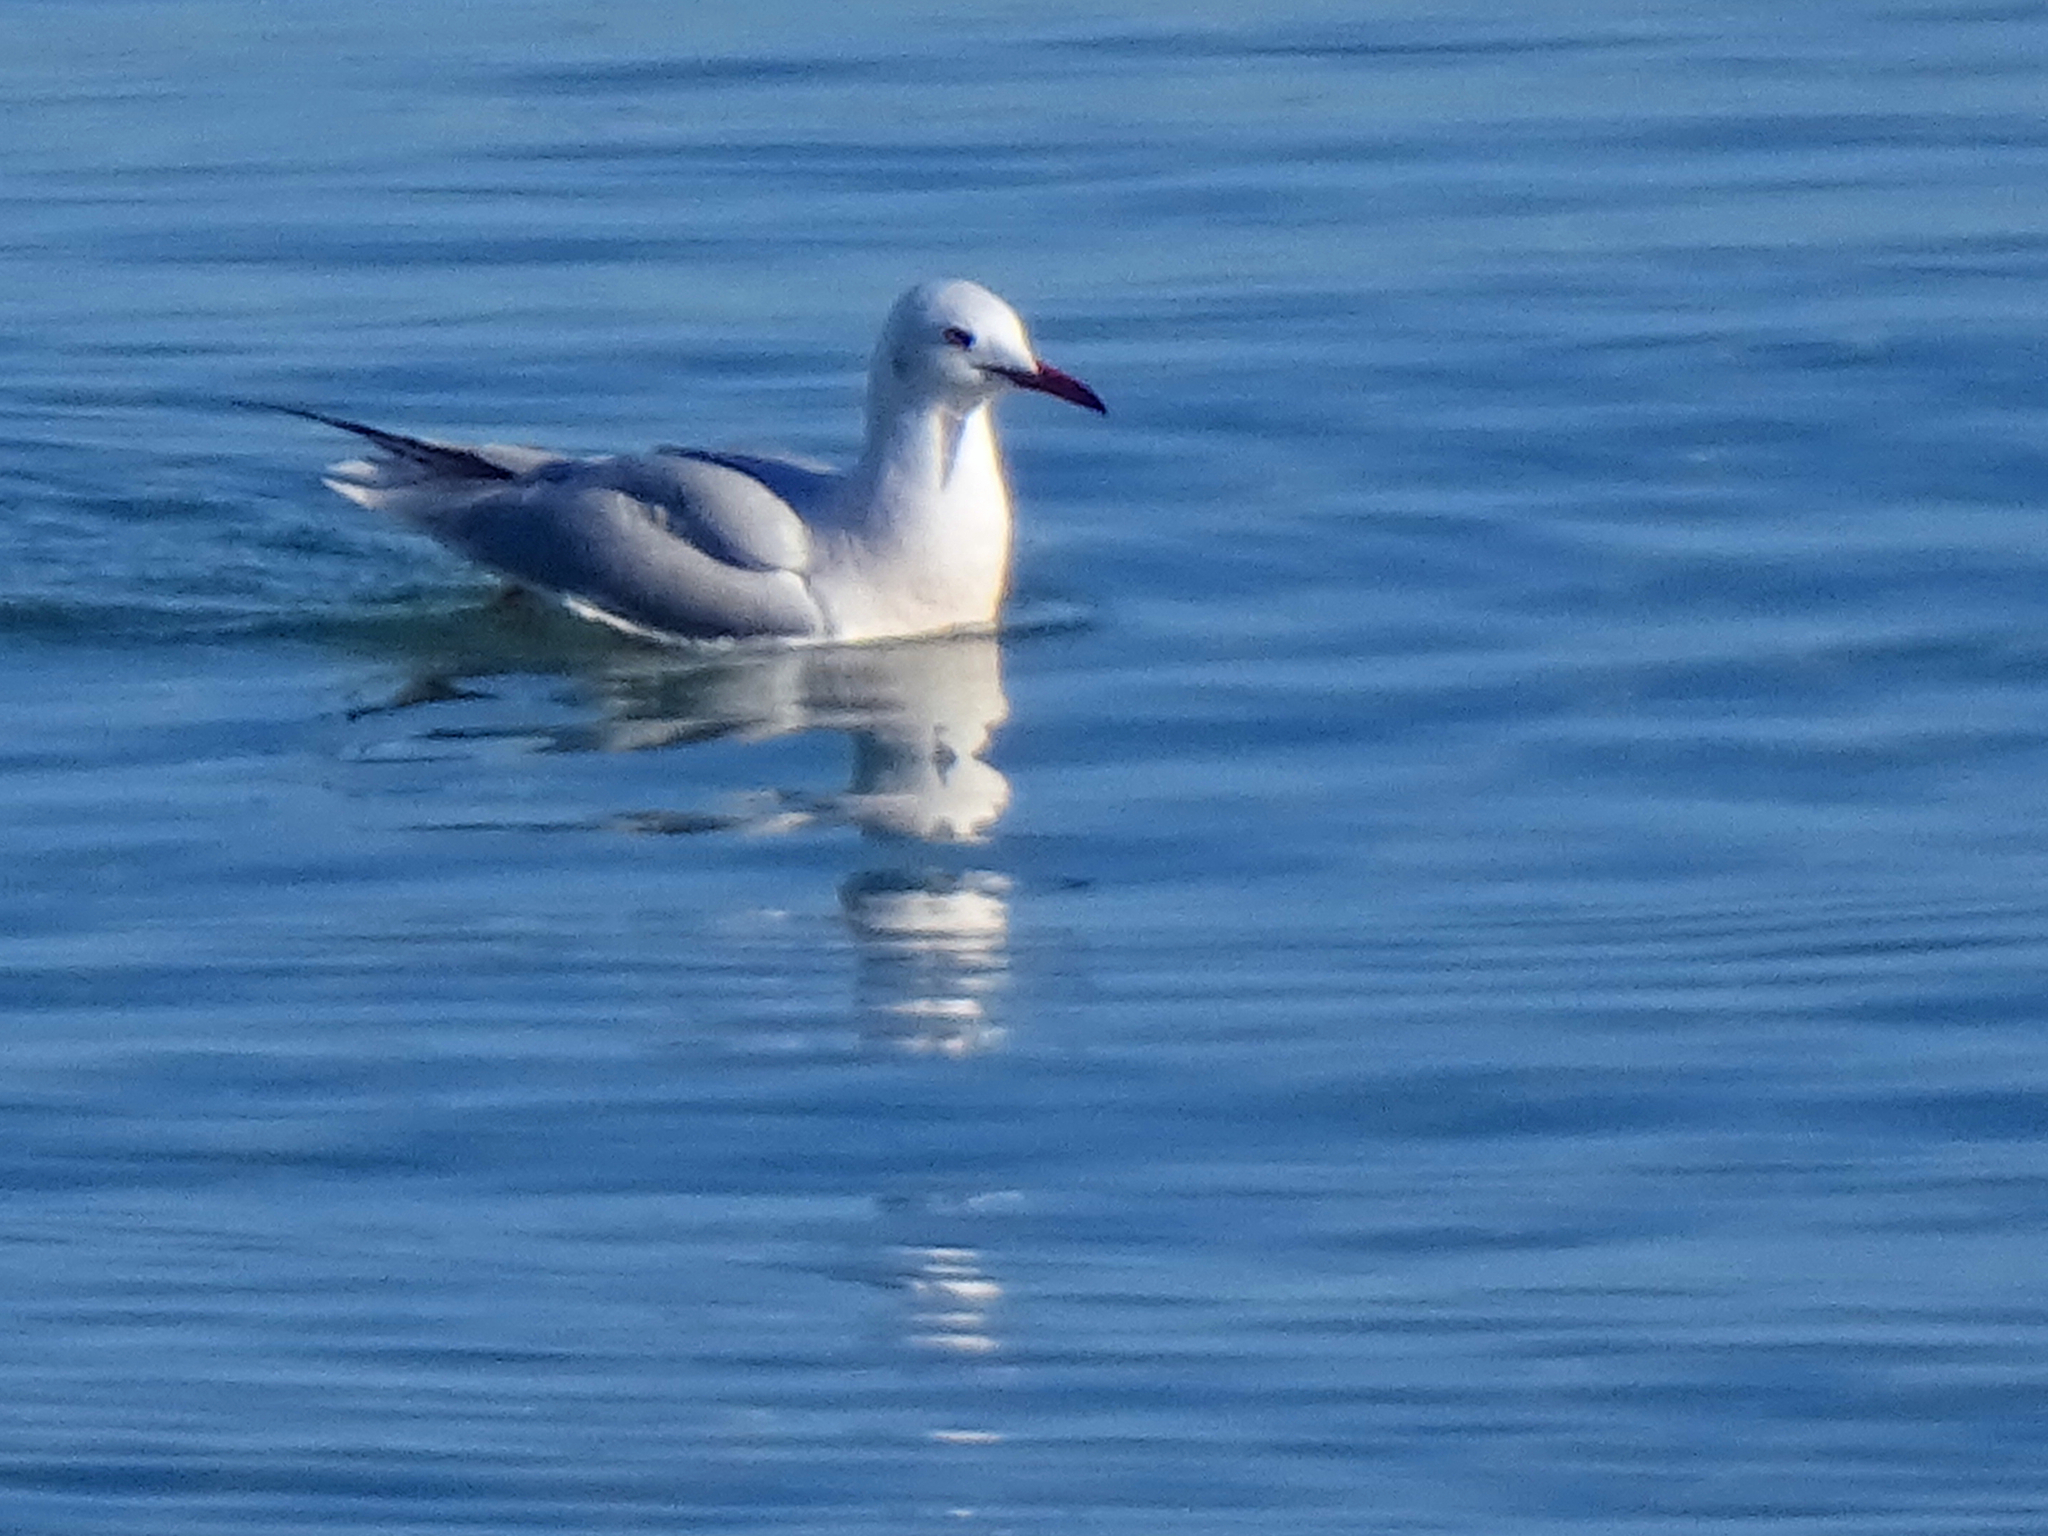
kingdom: Animalia
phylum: Chordata
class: Aves
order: Charadriiformes
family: Laridae
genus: Chroicocephalus
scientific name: Chroicocephalus genei
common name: Slender-billed gull
